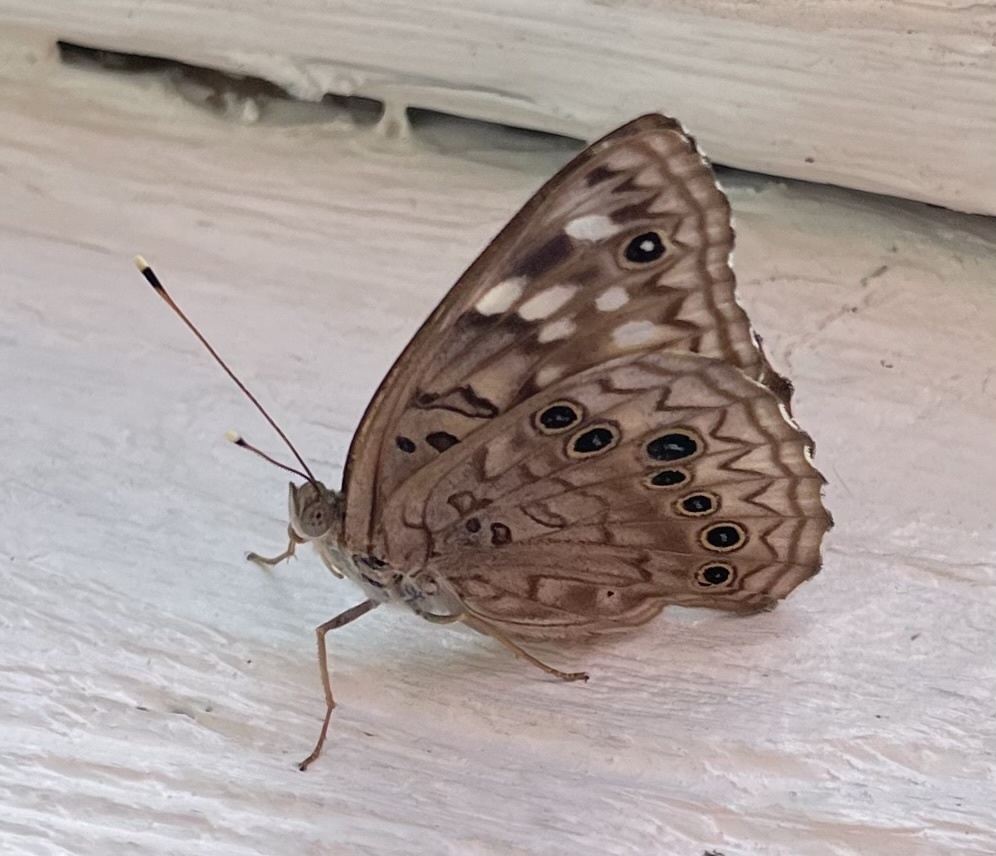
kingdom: Animalia
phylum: Arthropoda
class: Insecta
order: Lepidoptera
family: Nymphalidae
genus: Asterocampa
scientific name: Asterocampa celtis
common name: Hackberry emperor
